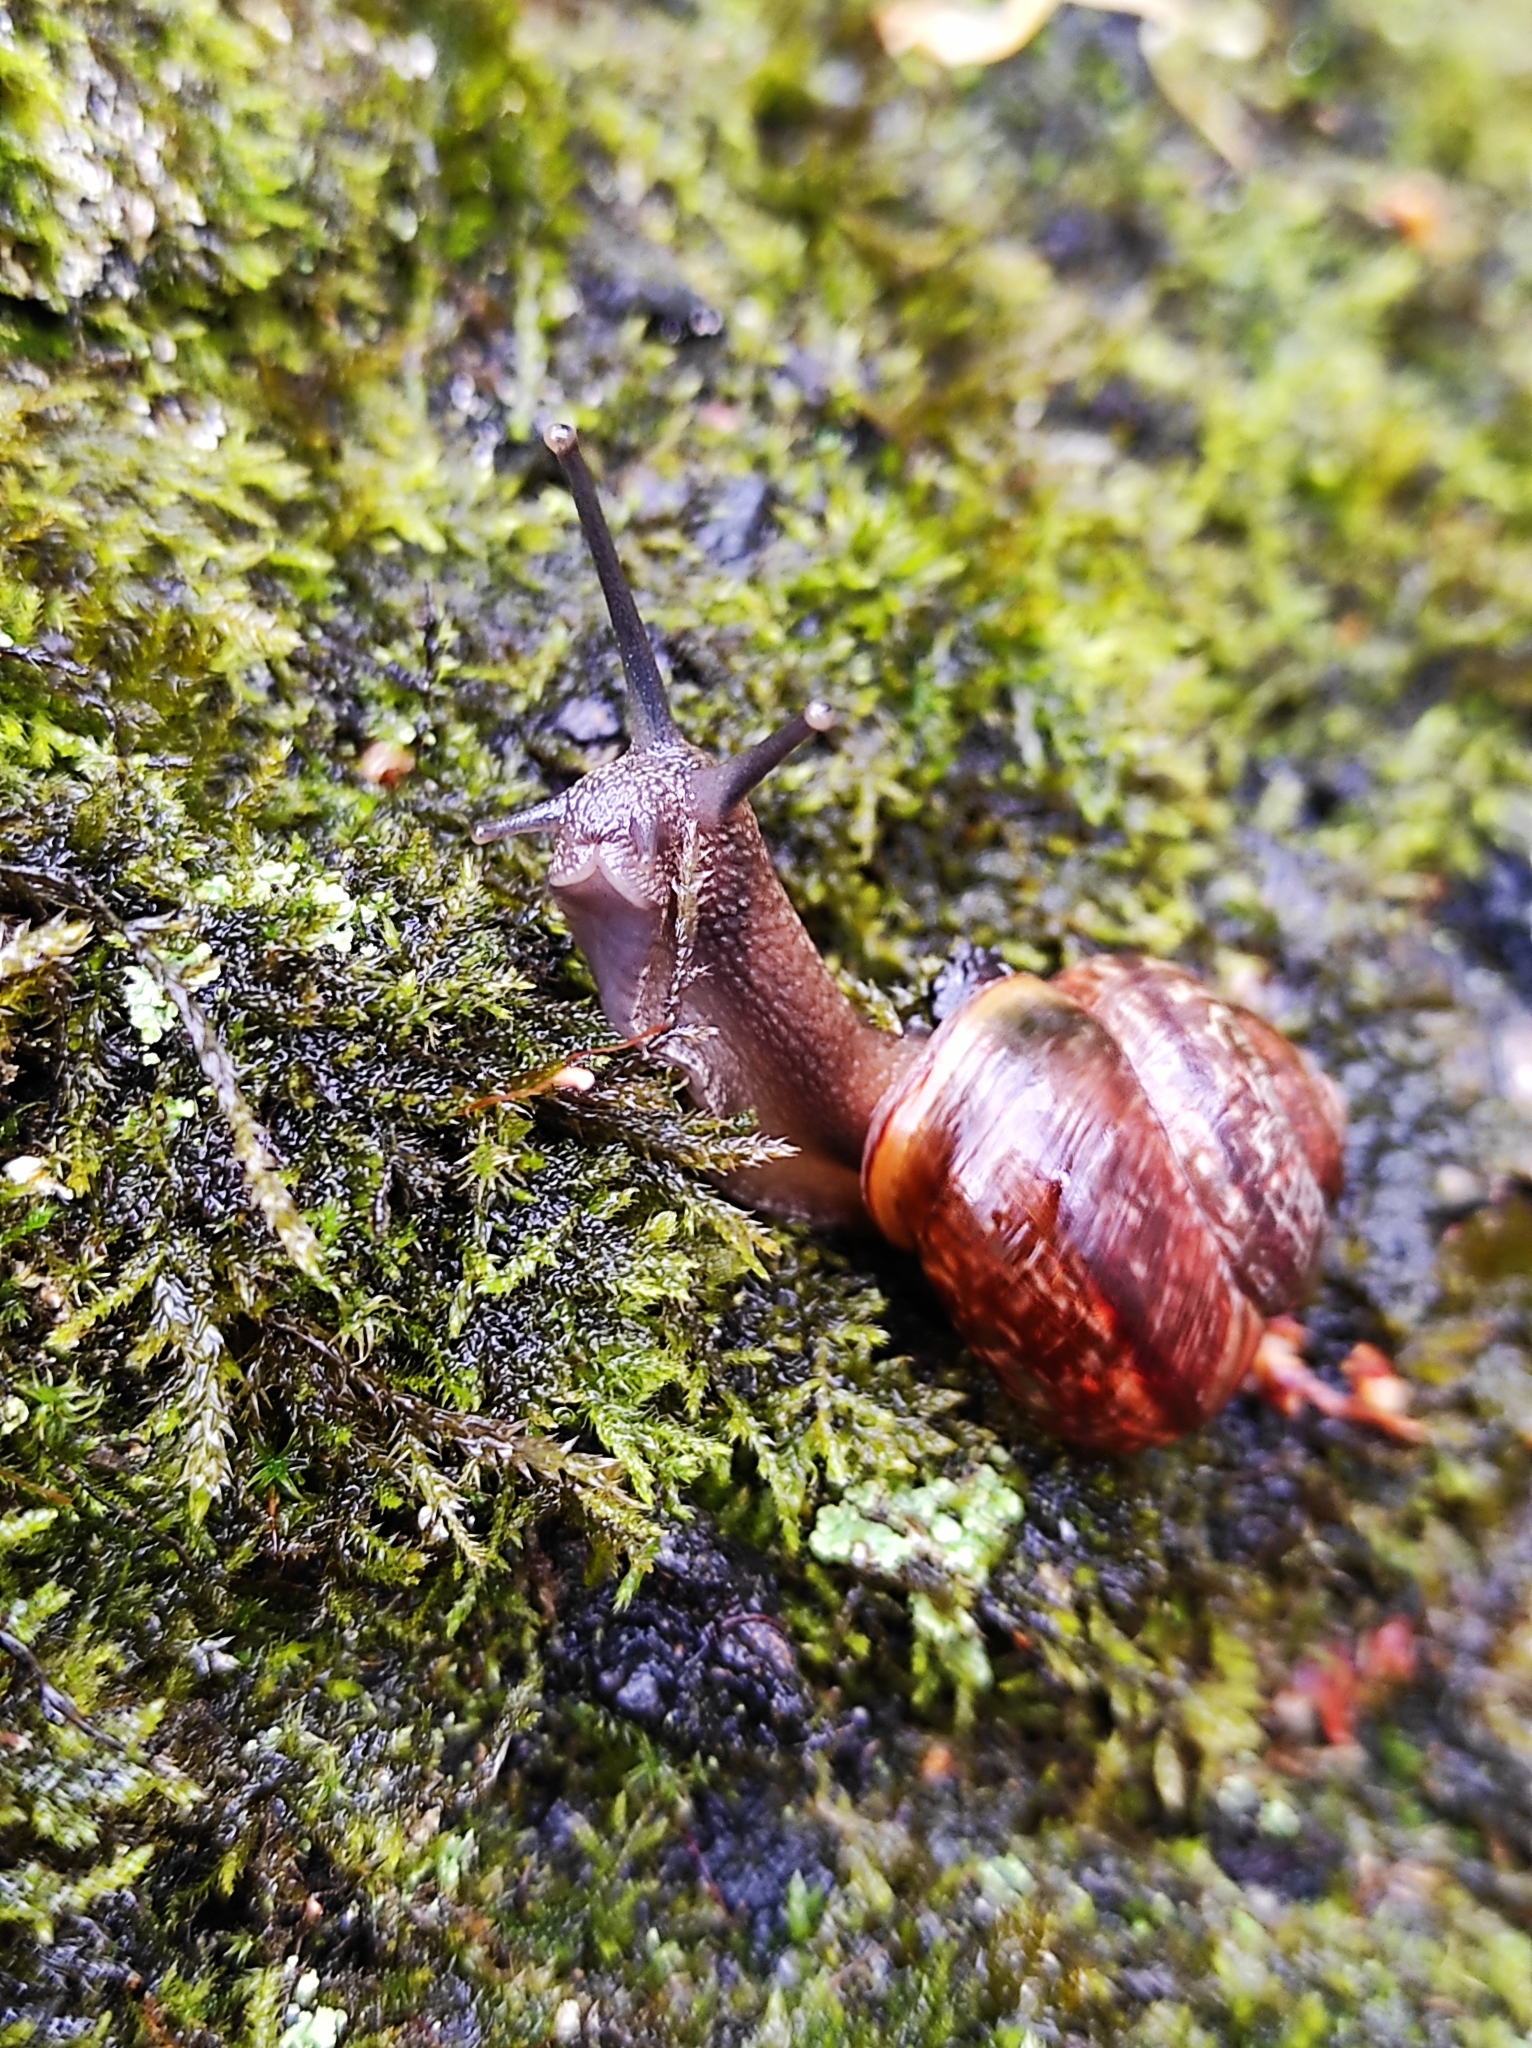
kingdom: Animalia
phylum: Mollusca
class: Gastropoda
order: Stylommatophora
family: Helicidae
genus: Arianta
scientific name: Arianta arbustorum
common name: Copse snail
